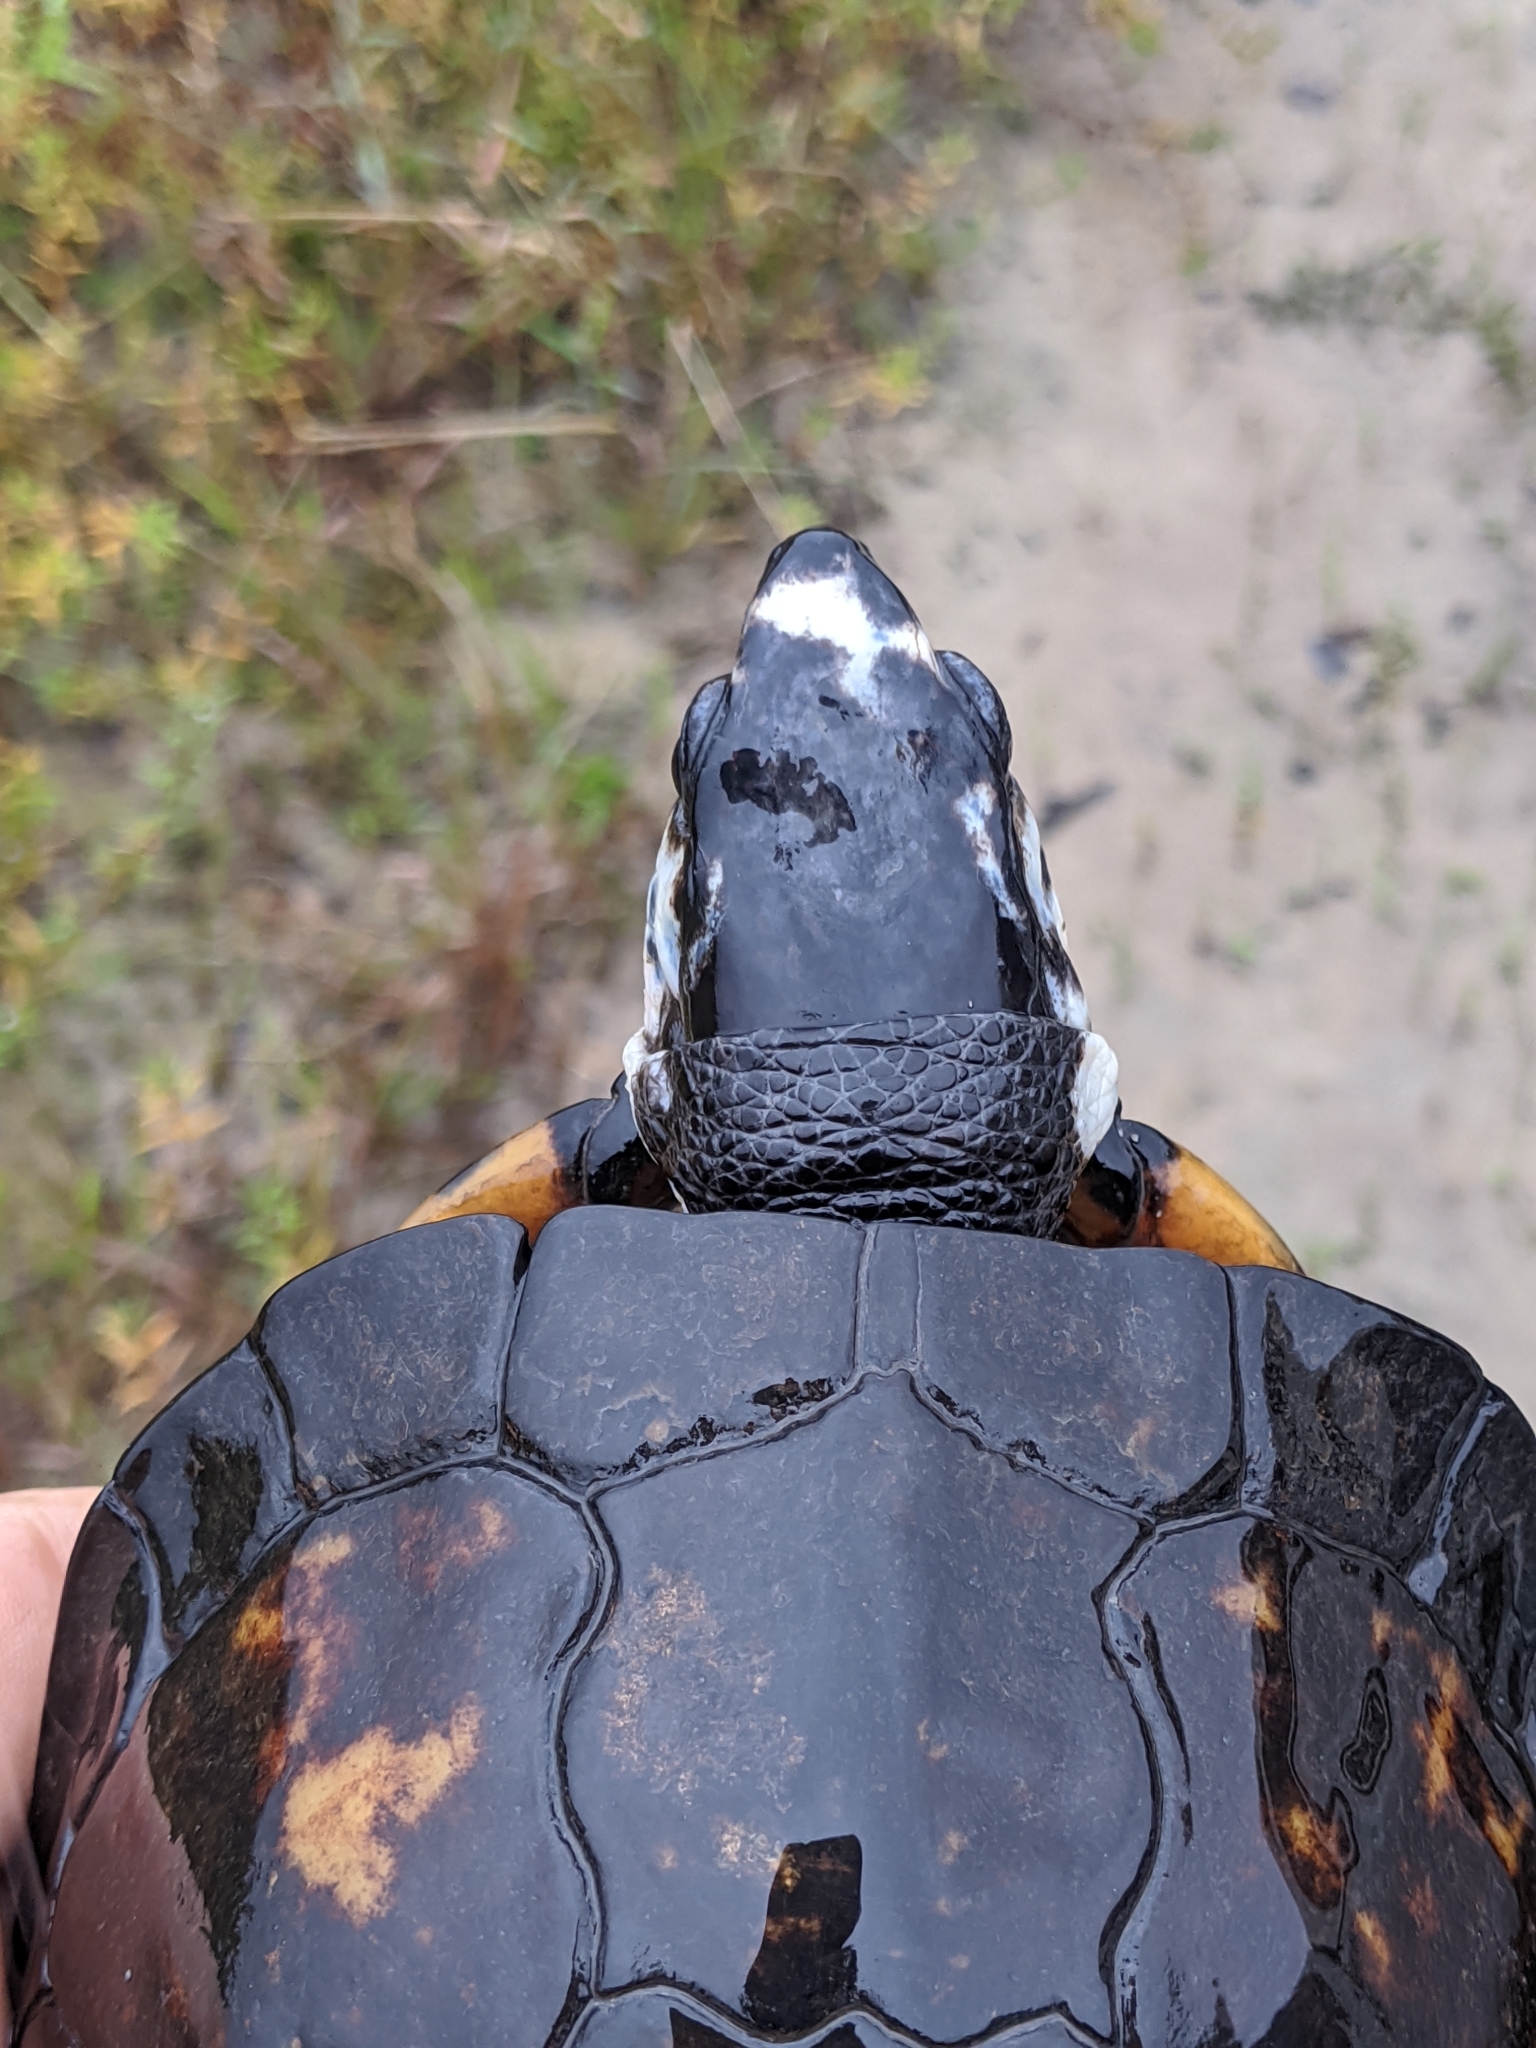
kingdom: Animalia
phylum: Chordata
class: Testudines
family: Emydidae
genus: Terrapene
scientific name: Terrapene carolina
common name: Common box turtle
